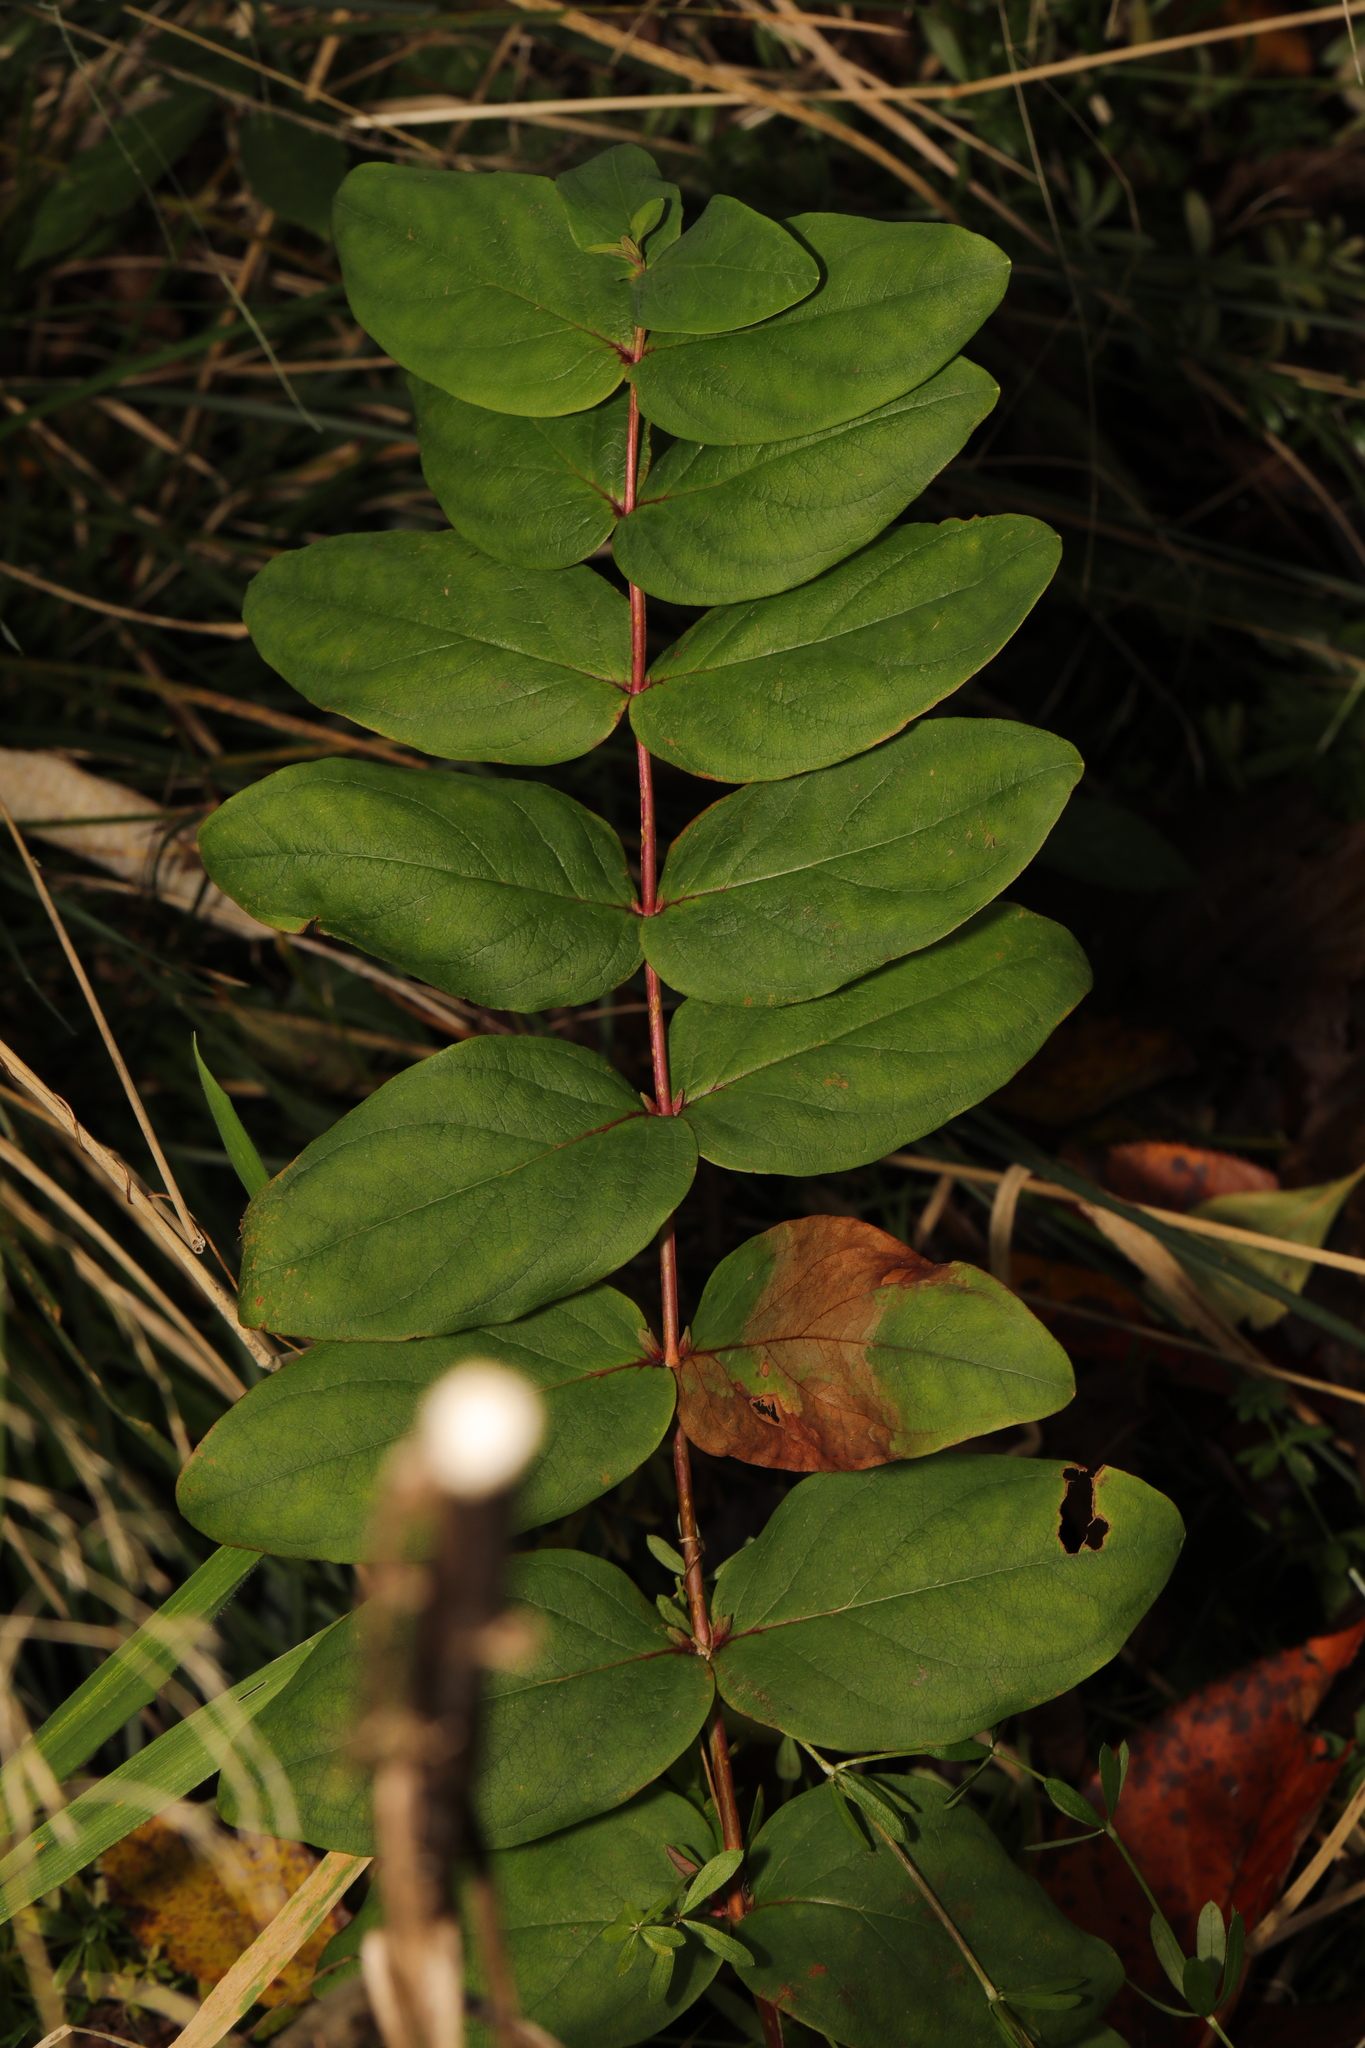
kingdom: Plantae
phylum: Tracheophyta
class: Magnoliopsida
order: Malpighiales
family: Hypericaceae
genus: Hypericum
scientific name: Hypericum androsaemum
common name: Sweet-amber
